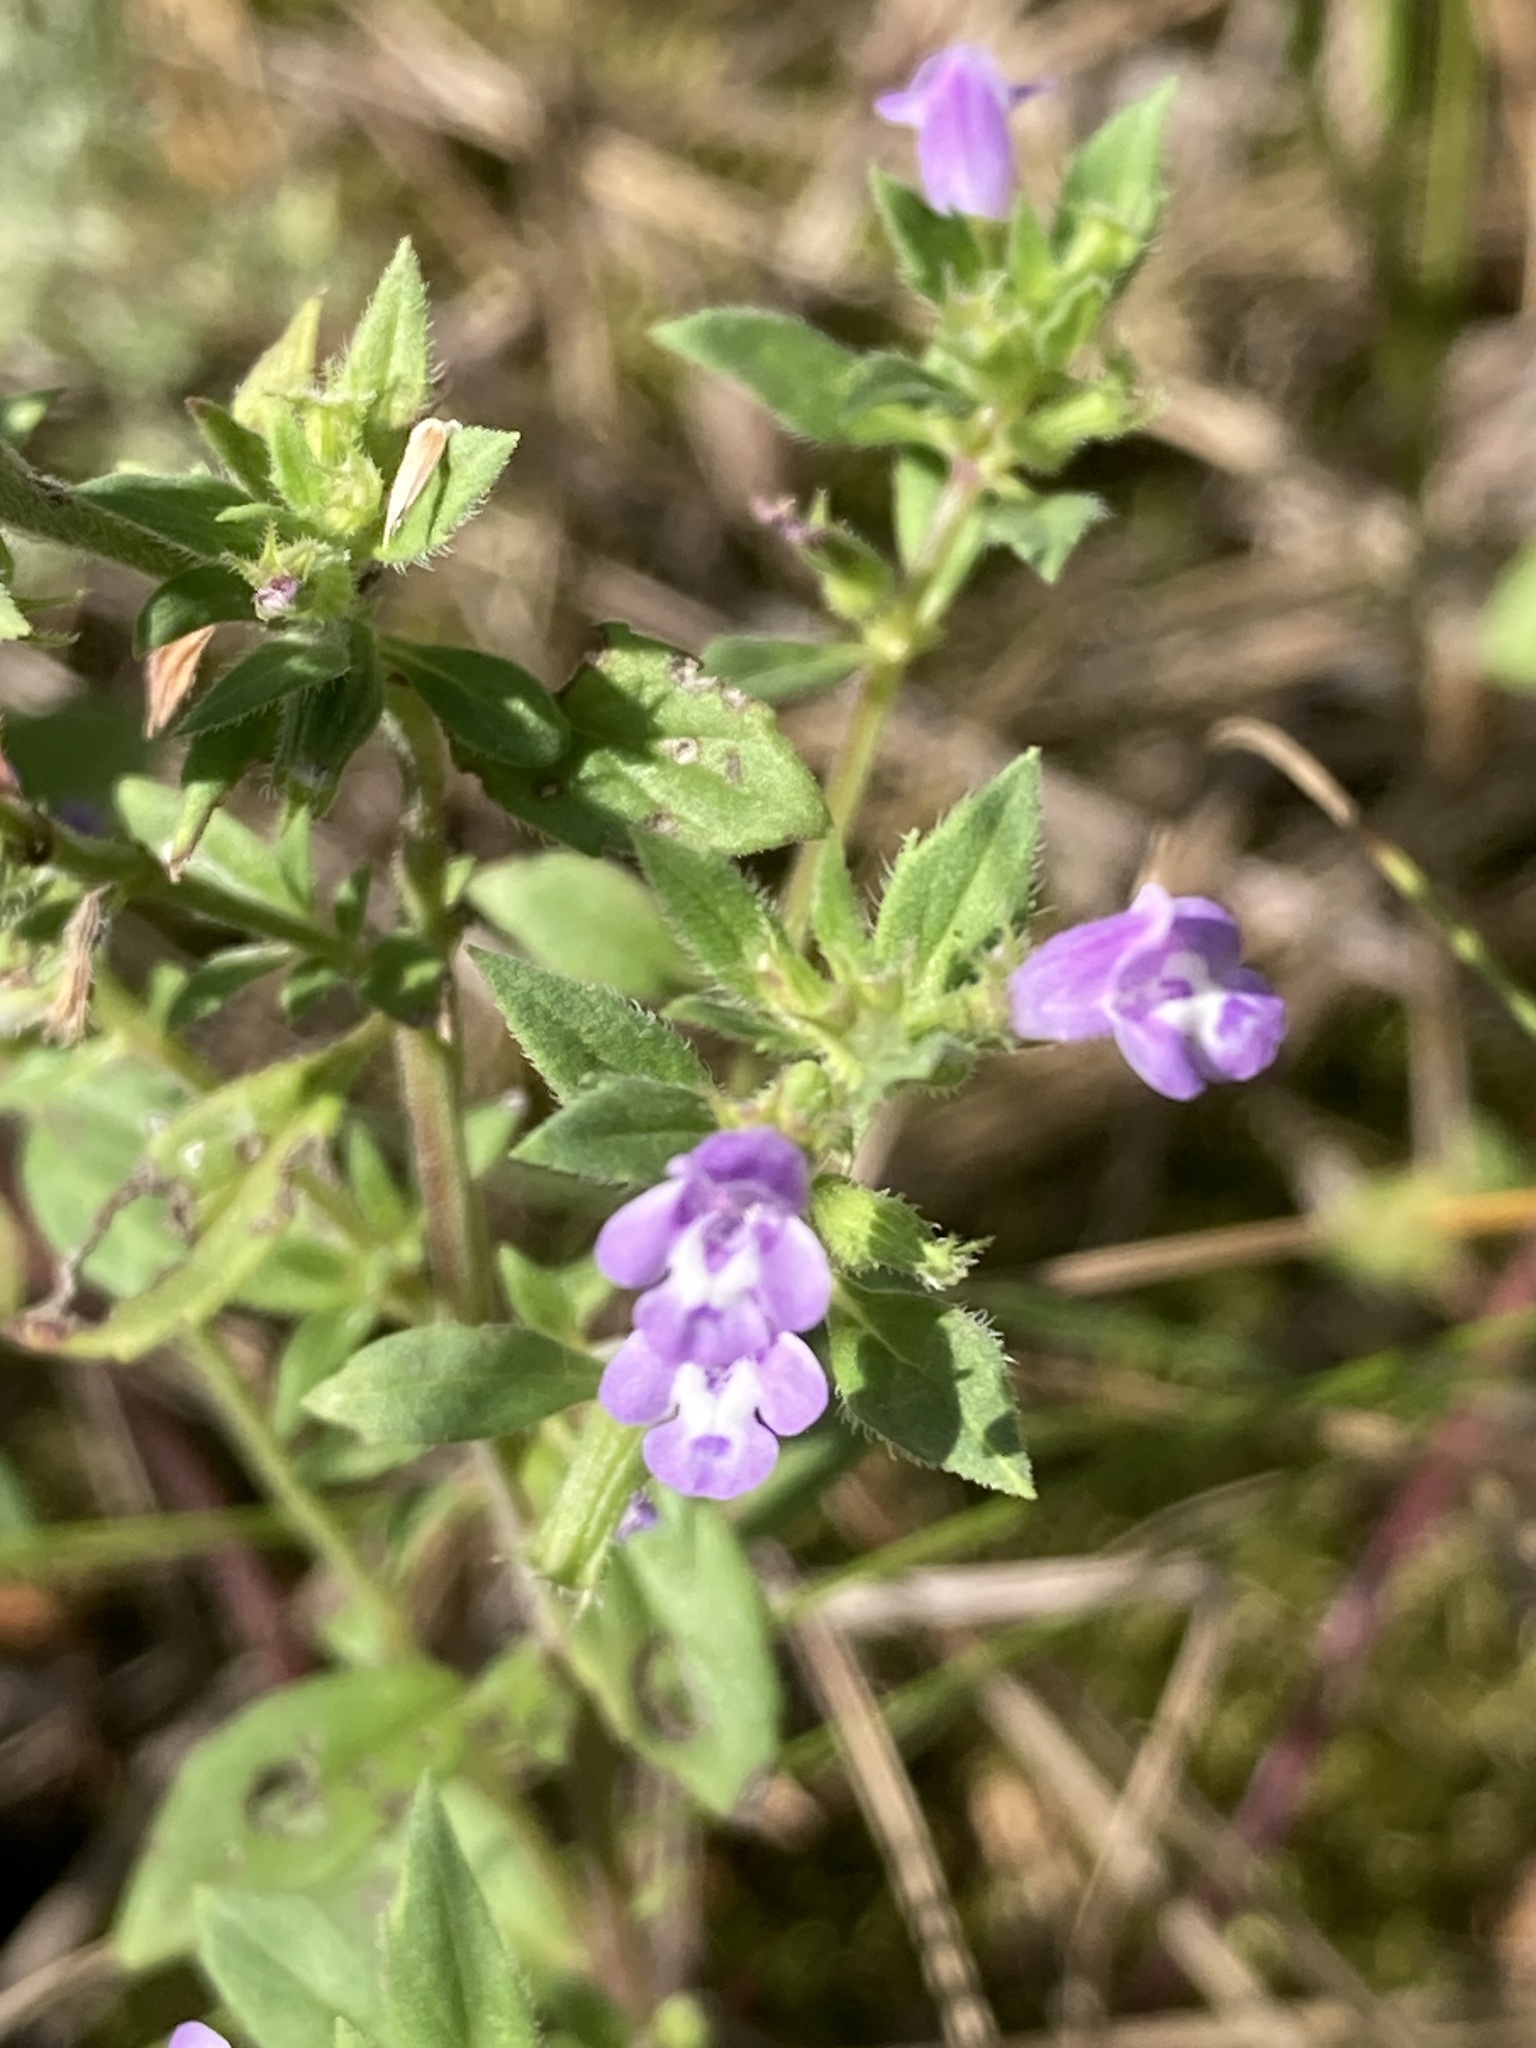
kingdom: Plantae
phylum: Tracheophyta
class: Magnoliopsida
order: Lamiales
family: Lamiaceae
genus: Clinopodium
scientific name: Clinopodium acinos
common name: Basil thyme
